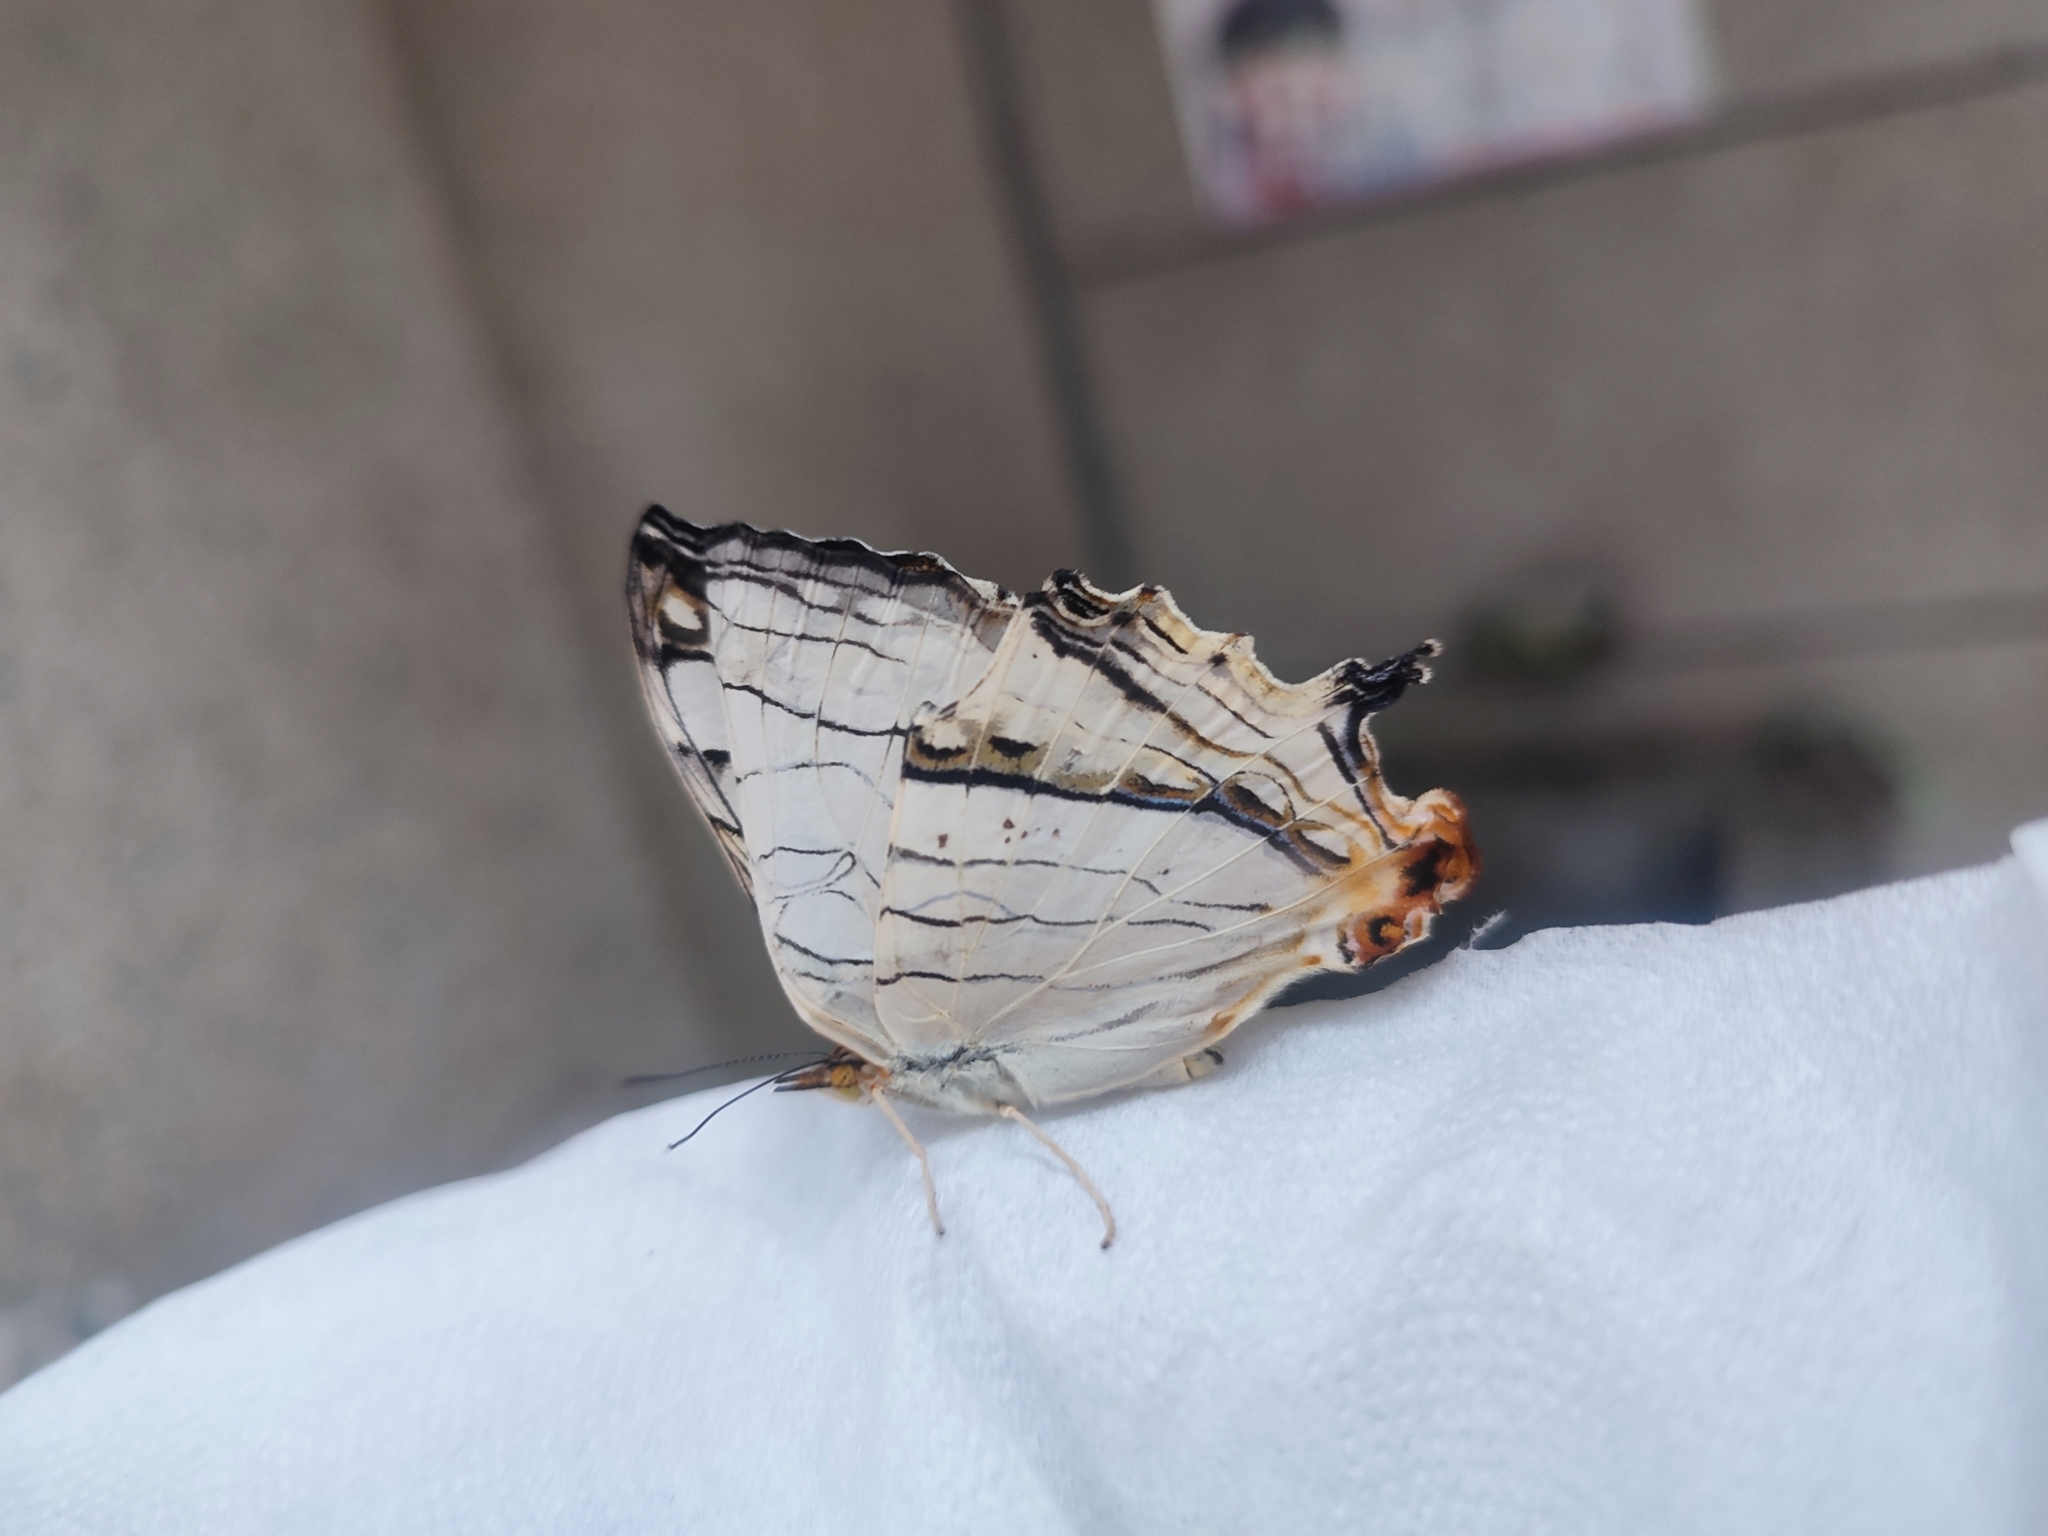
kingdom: Animalia
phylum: Arthropoda
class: Insecta
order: Lepidoptera
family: Nymphalidae
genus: Cyrestis
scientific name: Cyrestis thyodamas
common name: Common mapwing
